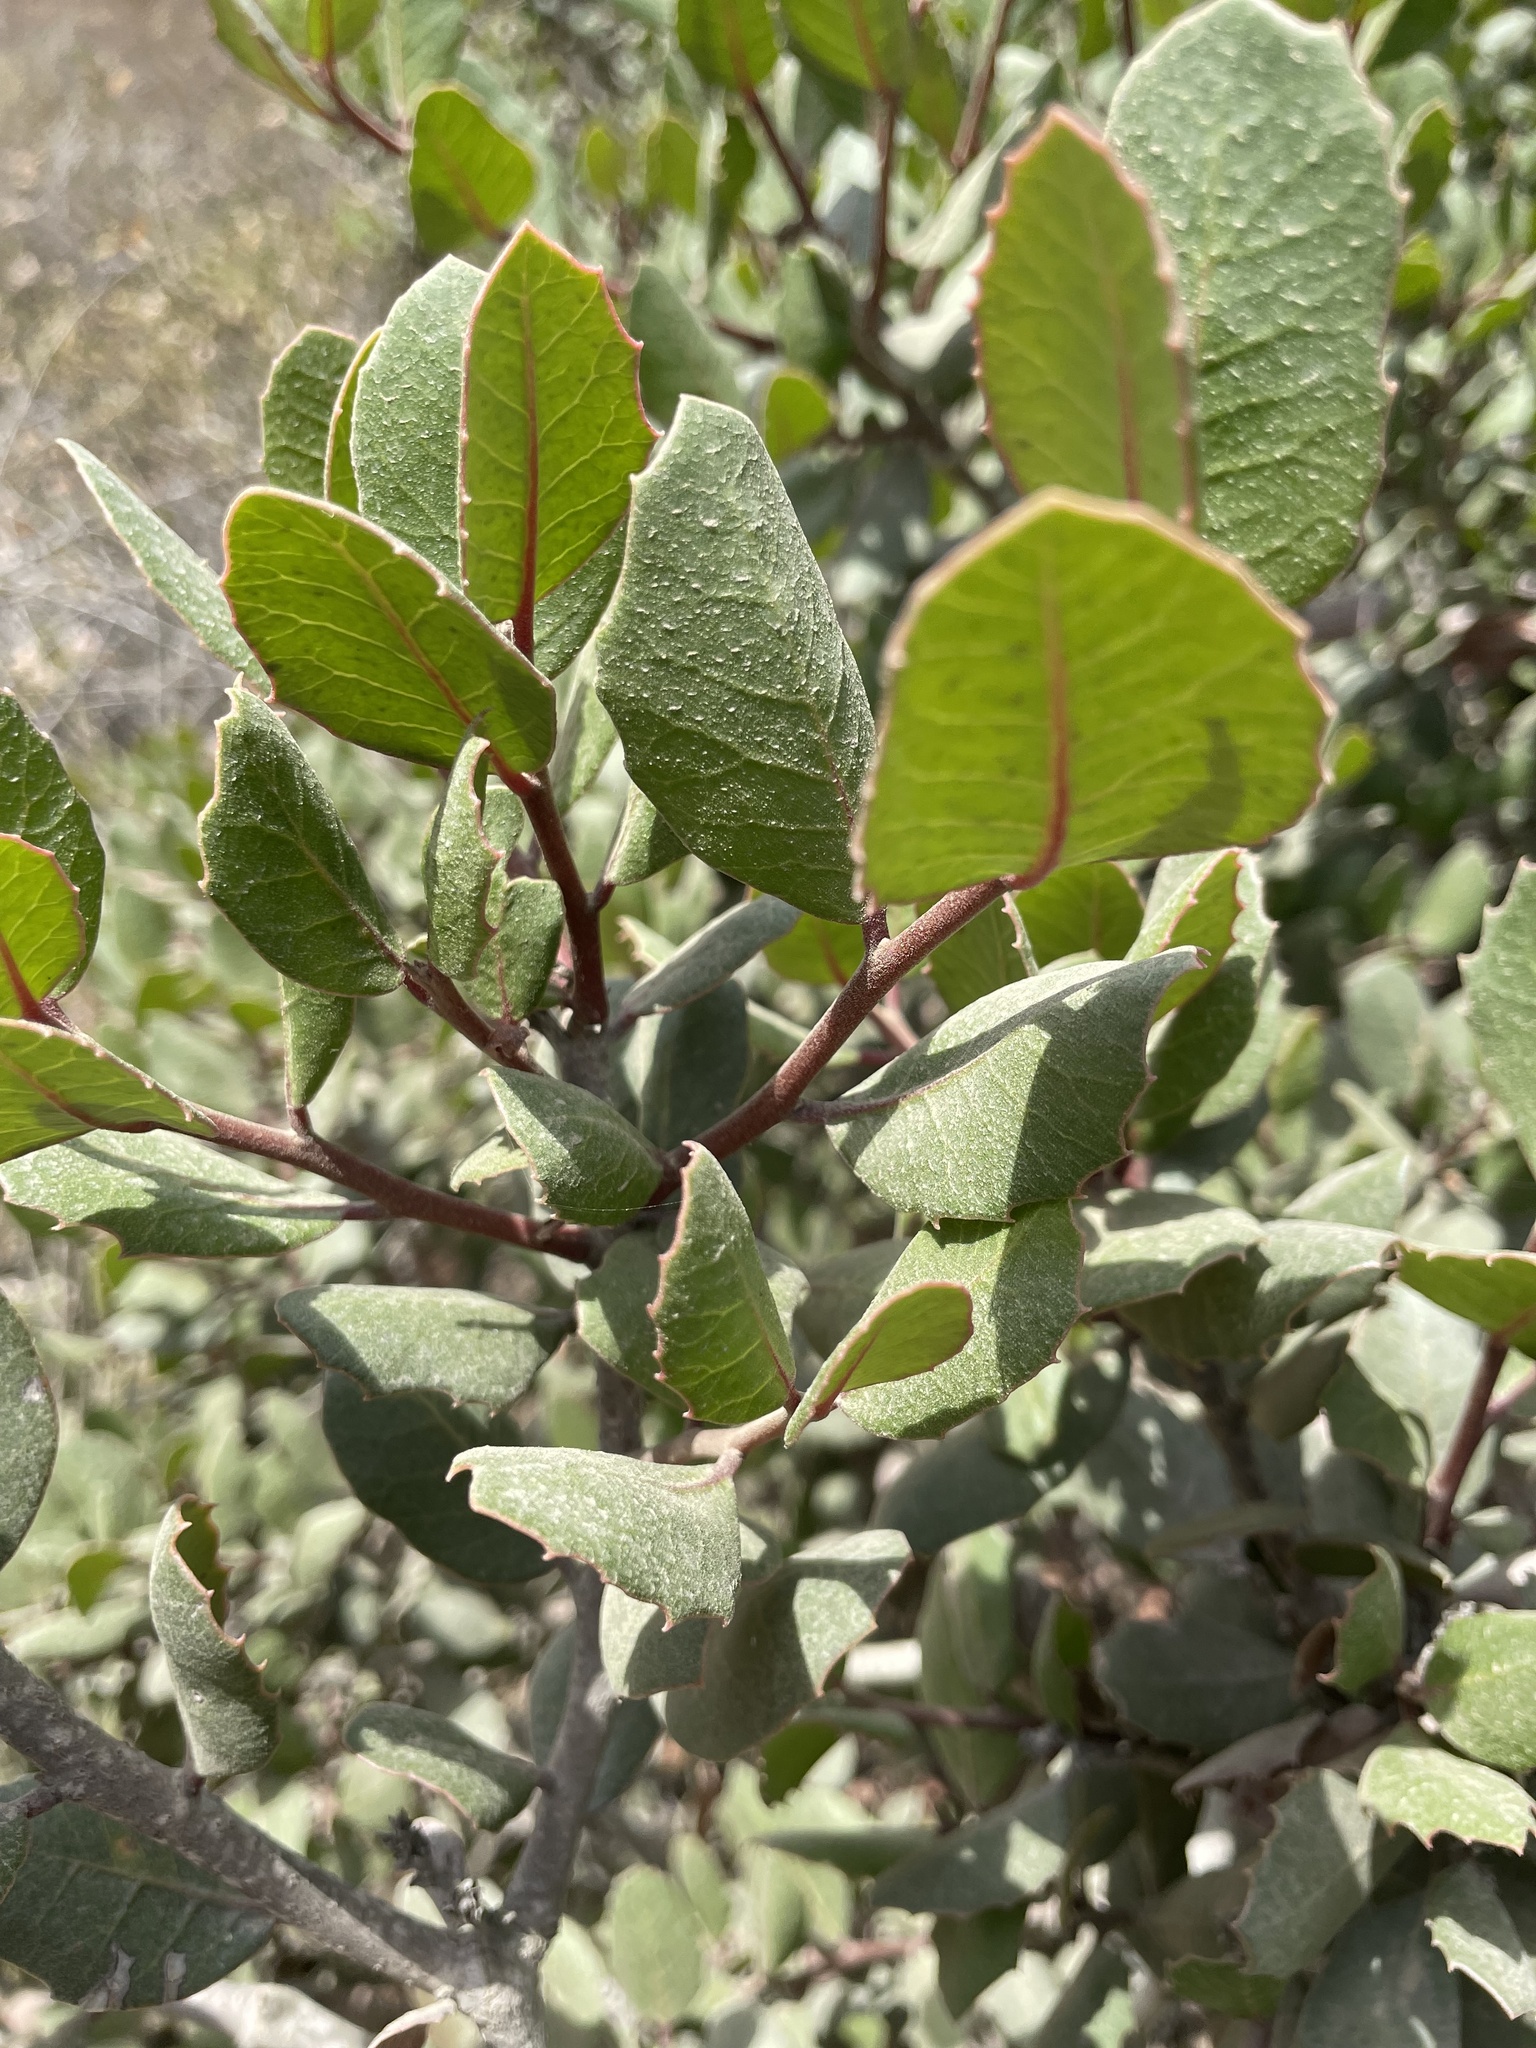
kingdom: Plantae
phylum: Tracheophyta
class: Magnoliopsida
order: Sapindales
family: Anacardiaceae
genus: Rhus
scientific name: Rhus integrifolia
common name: Lemonade sumac
